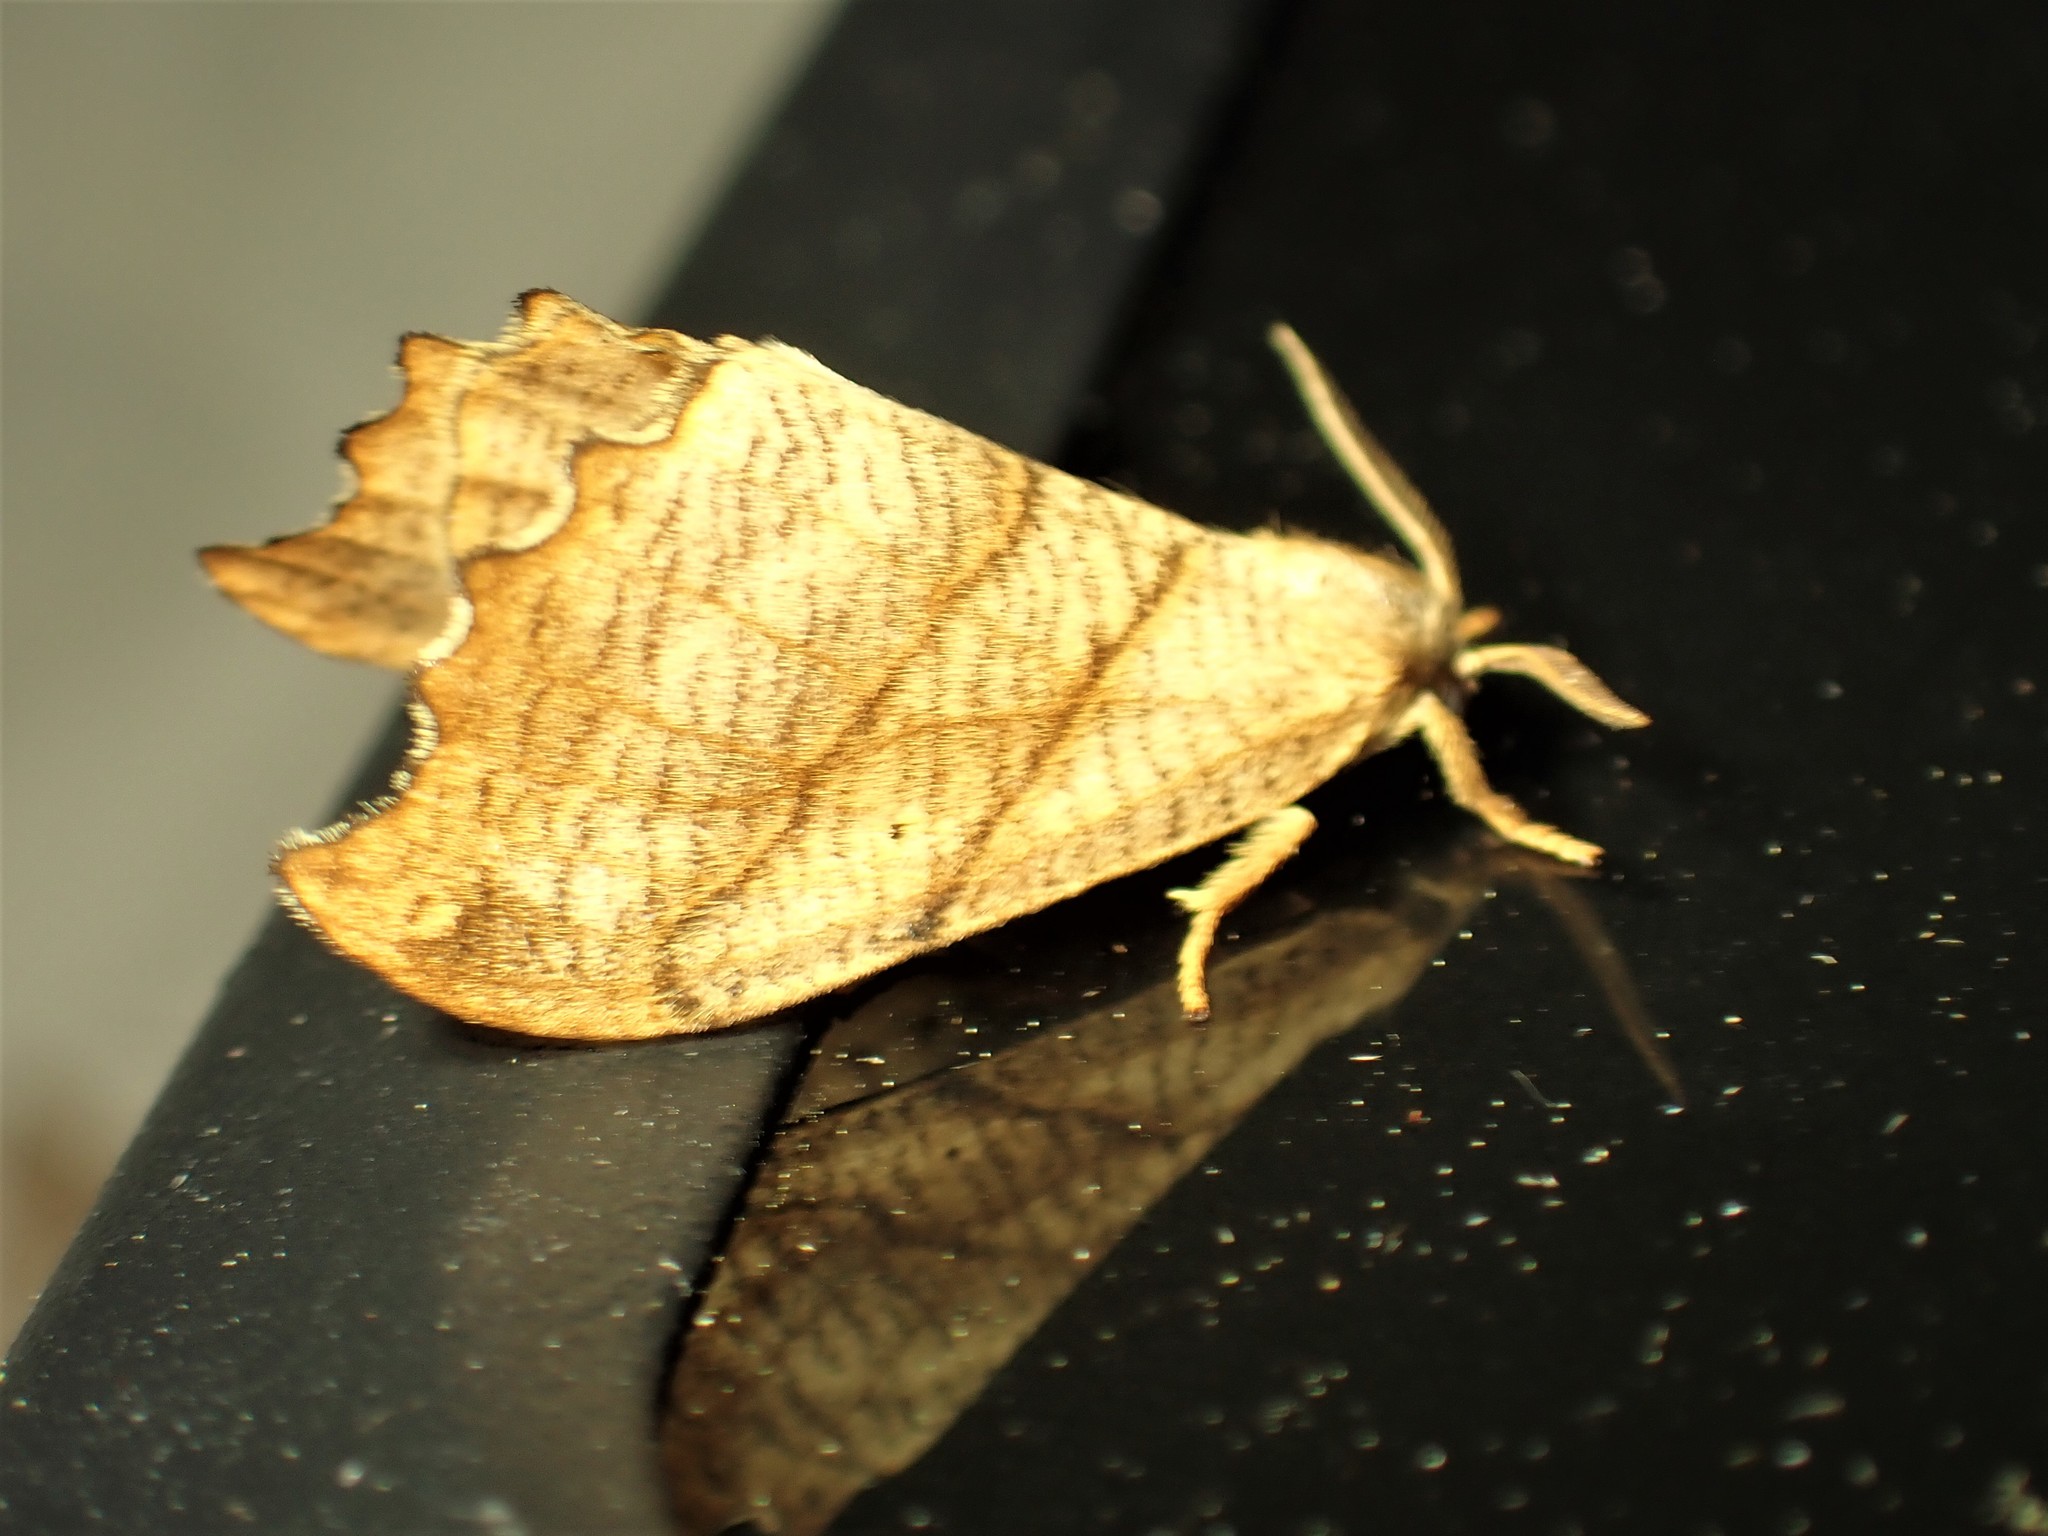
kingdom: Animalia
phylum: Arthropoda
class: Insecta
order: Lepidoptera
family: Drepanidae
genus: Falcaria
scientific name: Falcaria bilineata
